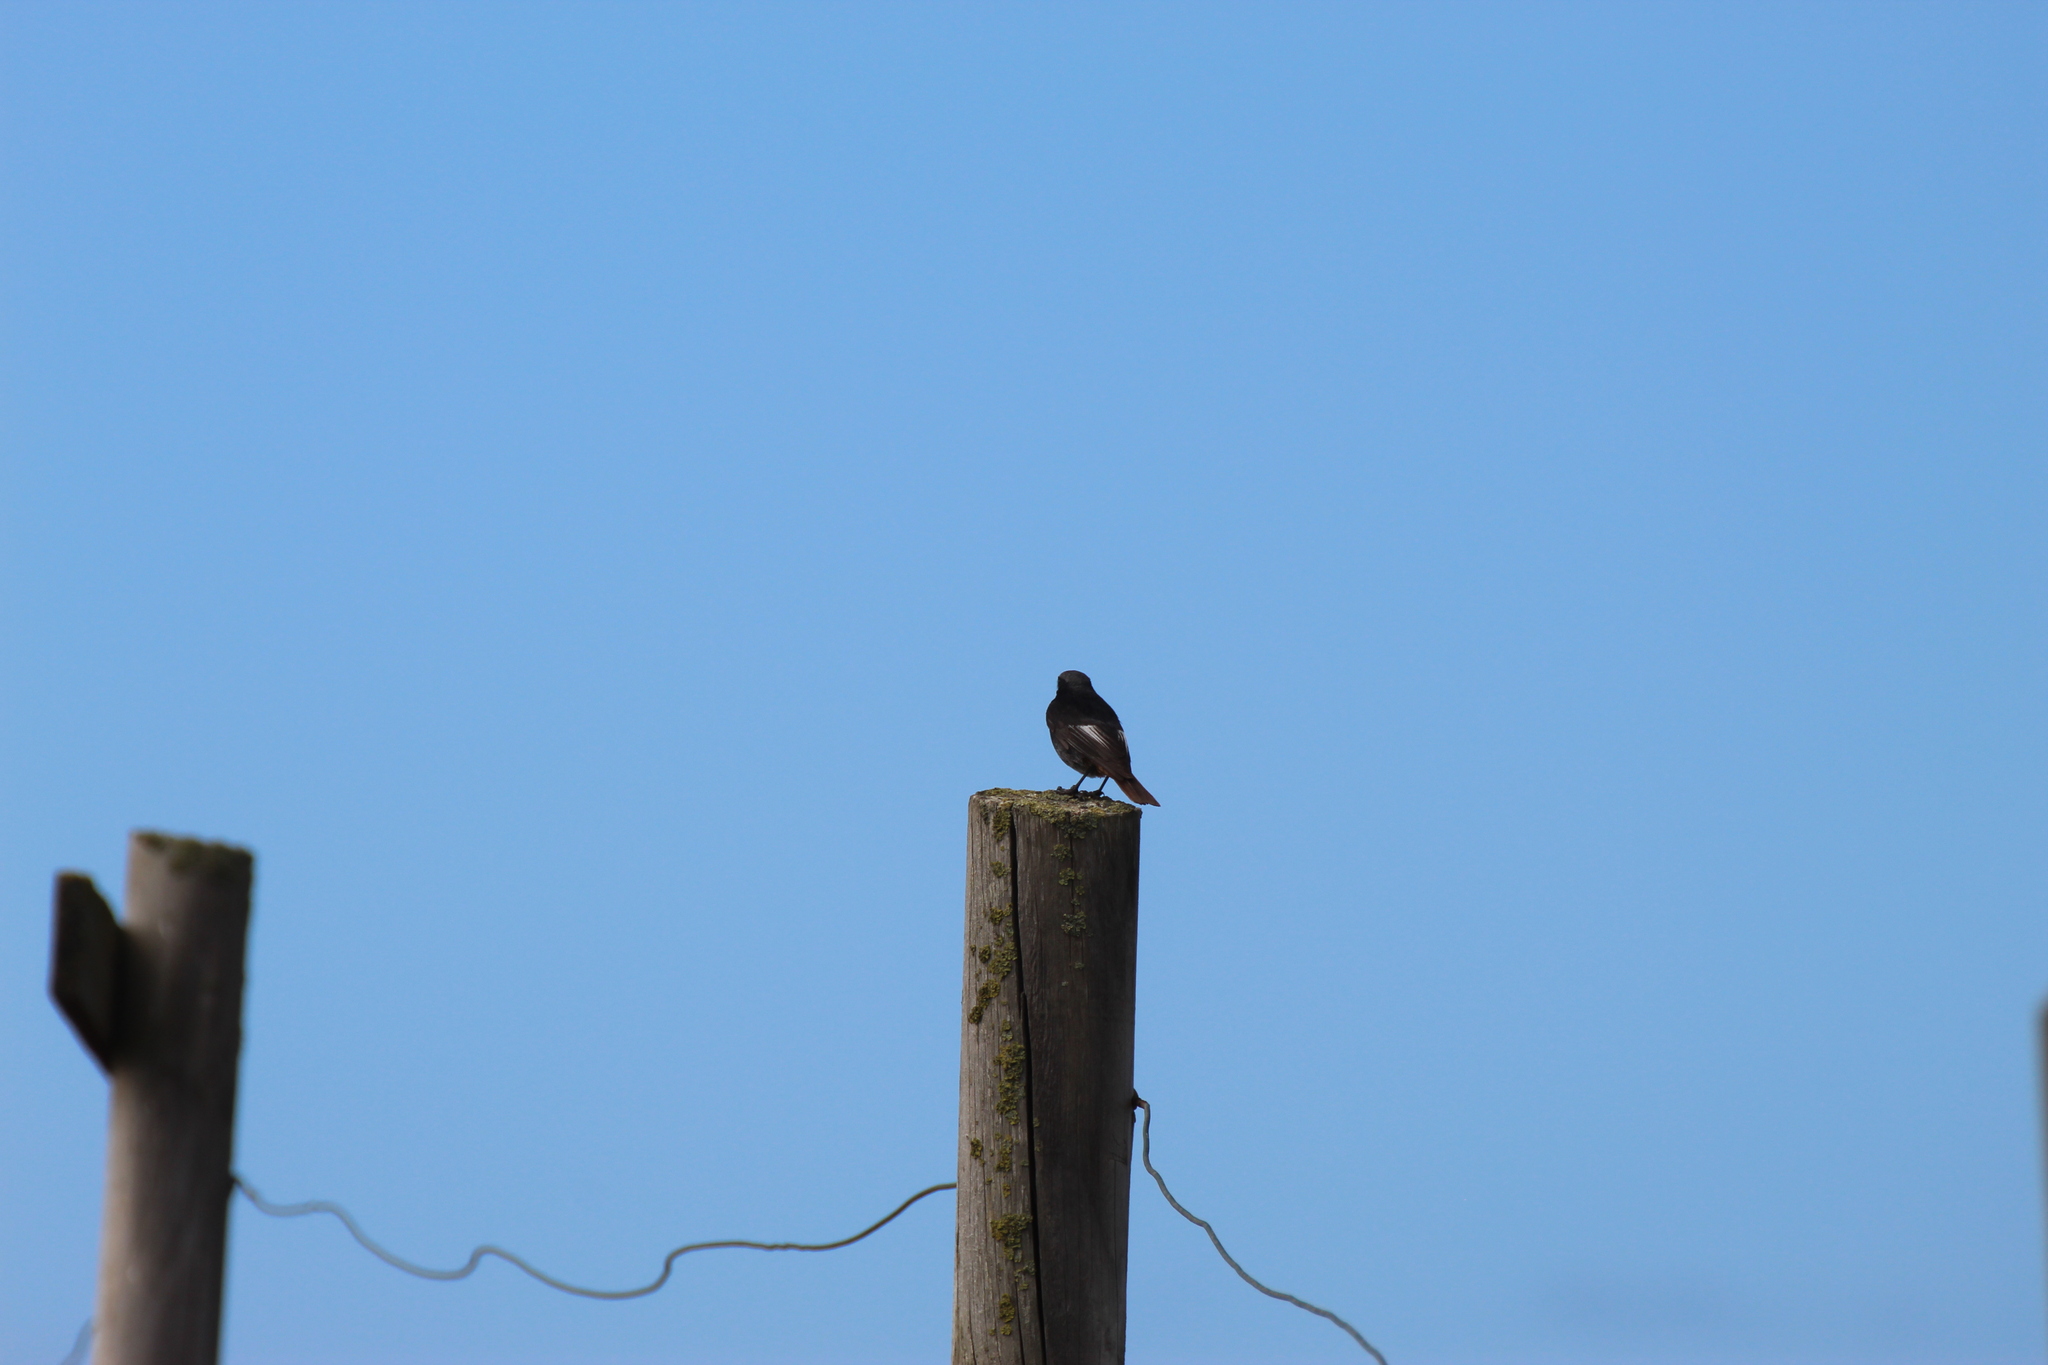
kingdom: Animalia
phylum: Chordata
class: Aves
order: Passeriformes
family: Muscicapidae
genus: Phoenicurus
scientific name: Phoenicurus ochruros
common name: Black redstart
